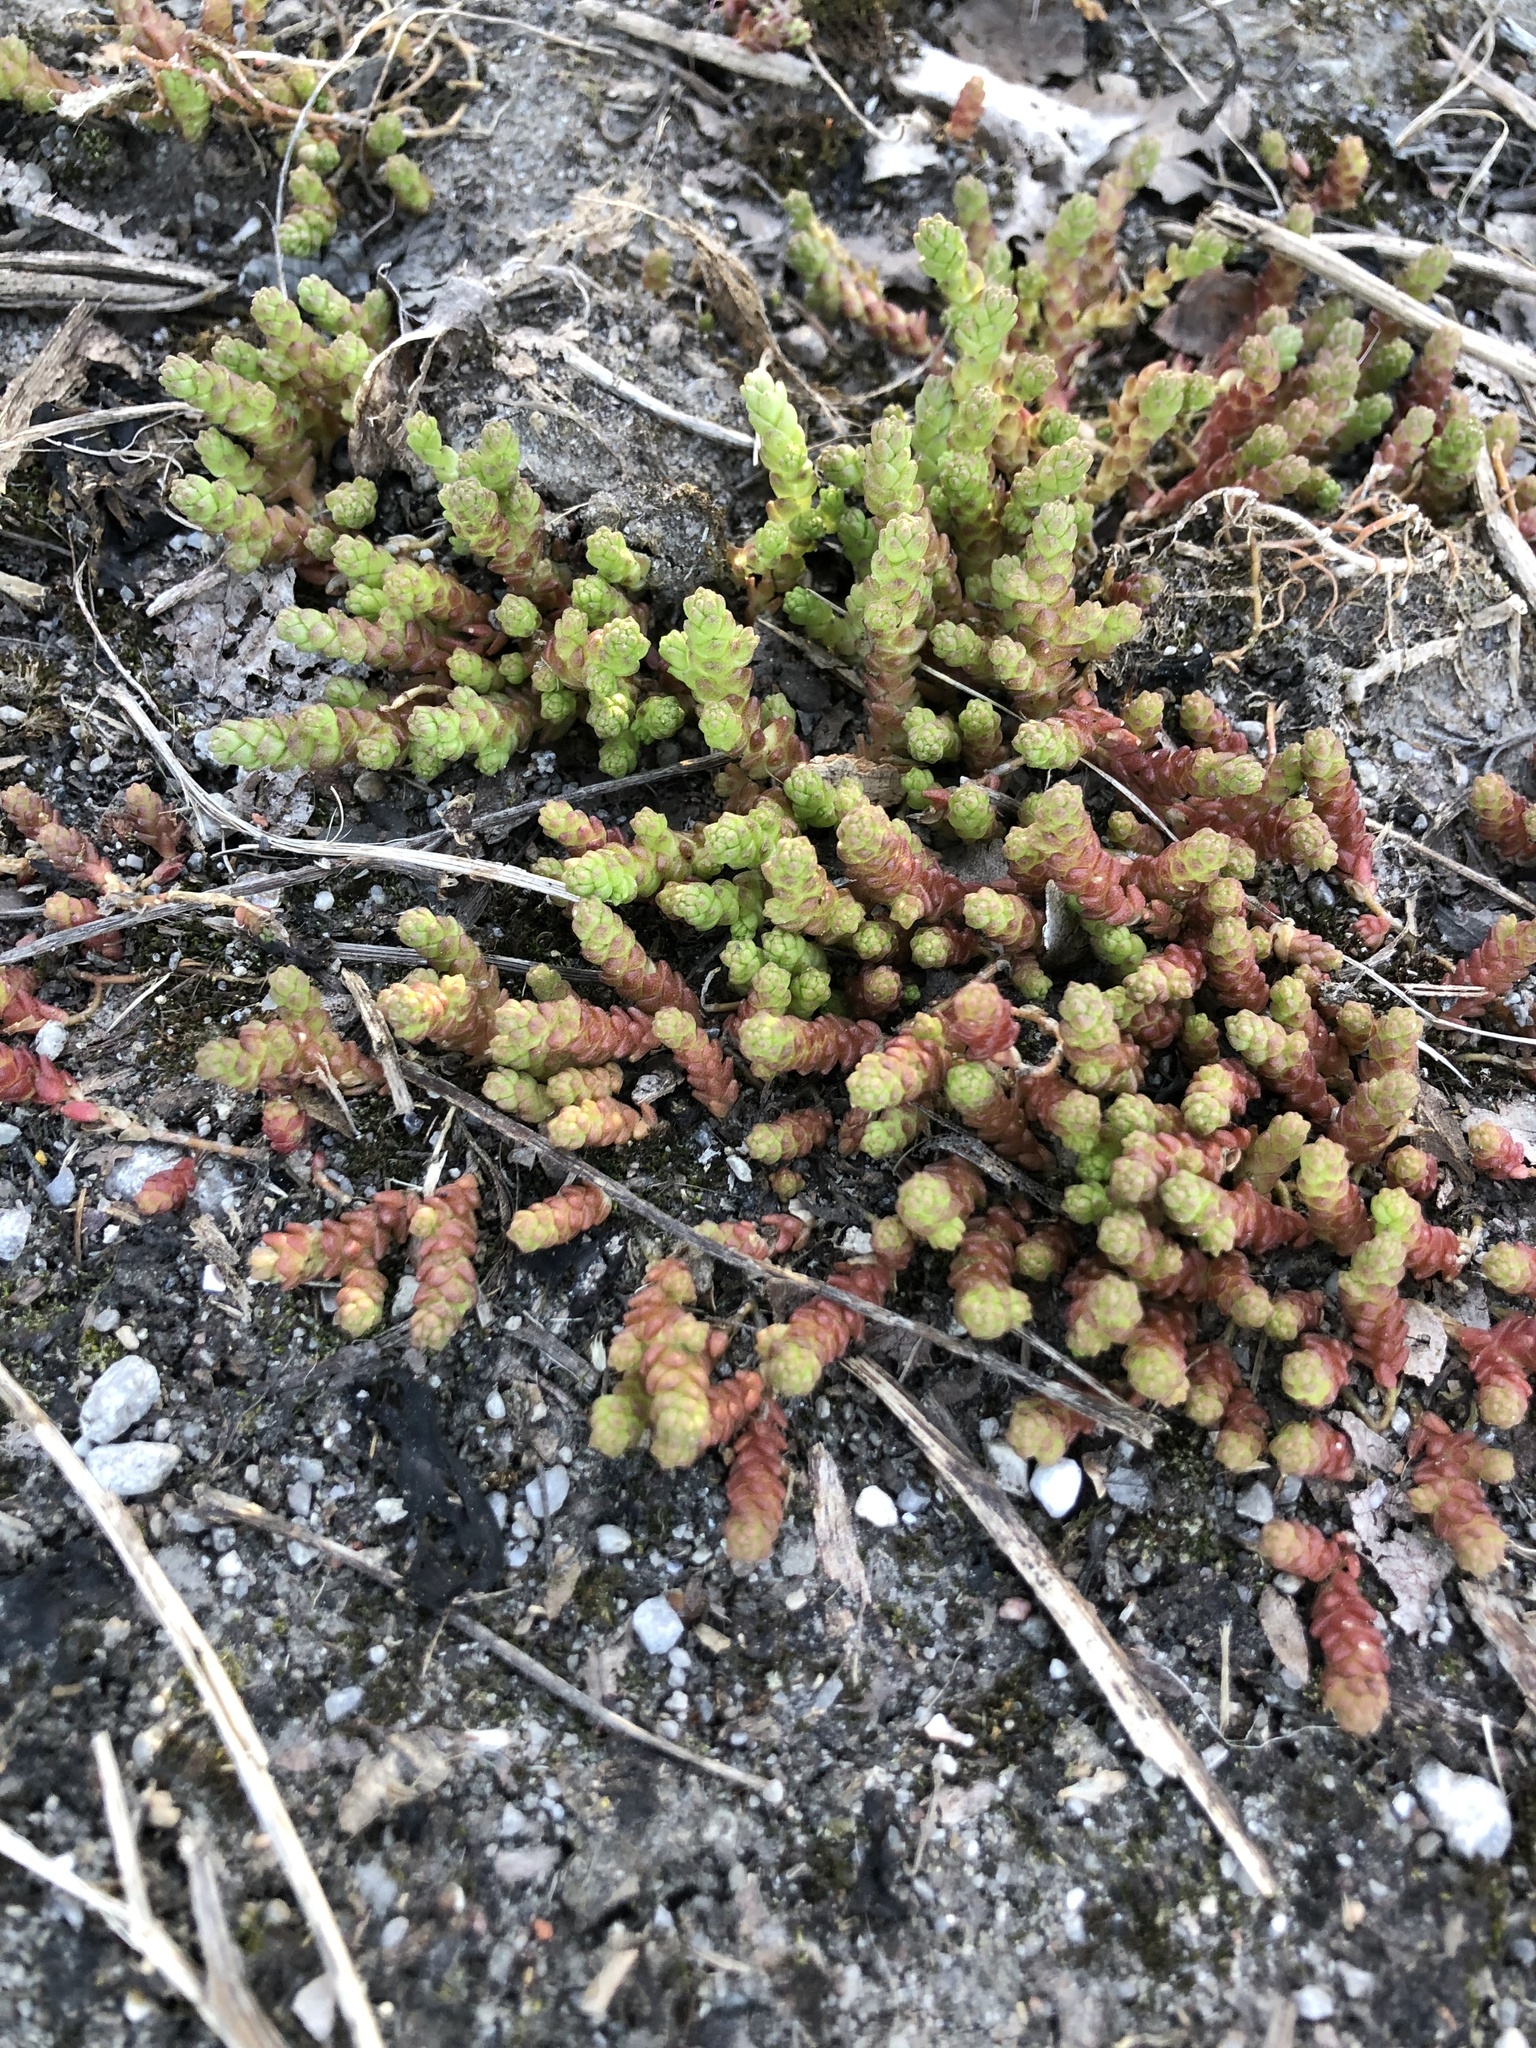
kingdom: Plantae
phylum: Tracheophyta
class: Magnoliopsida
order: Saxifragales
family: Crassulaceae
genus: Sedum
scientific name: Sedum acre
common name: Biting stonecrop
